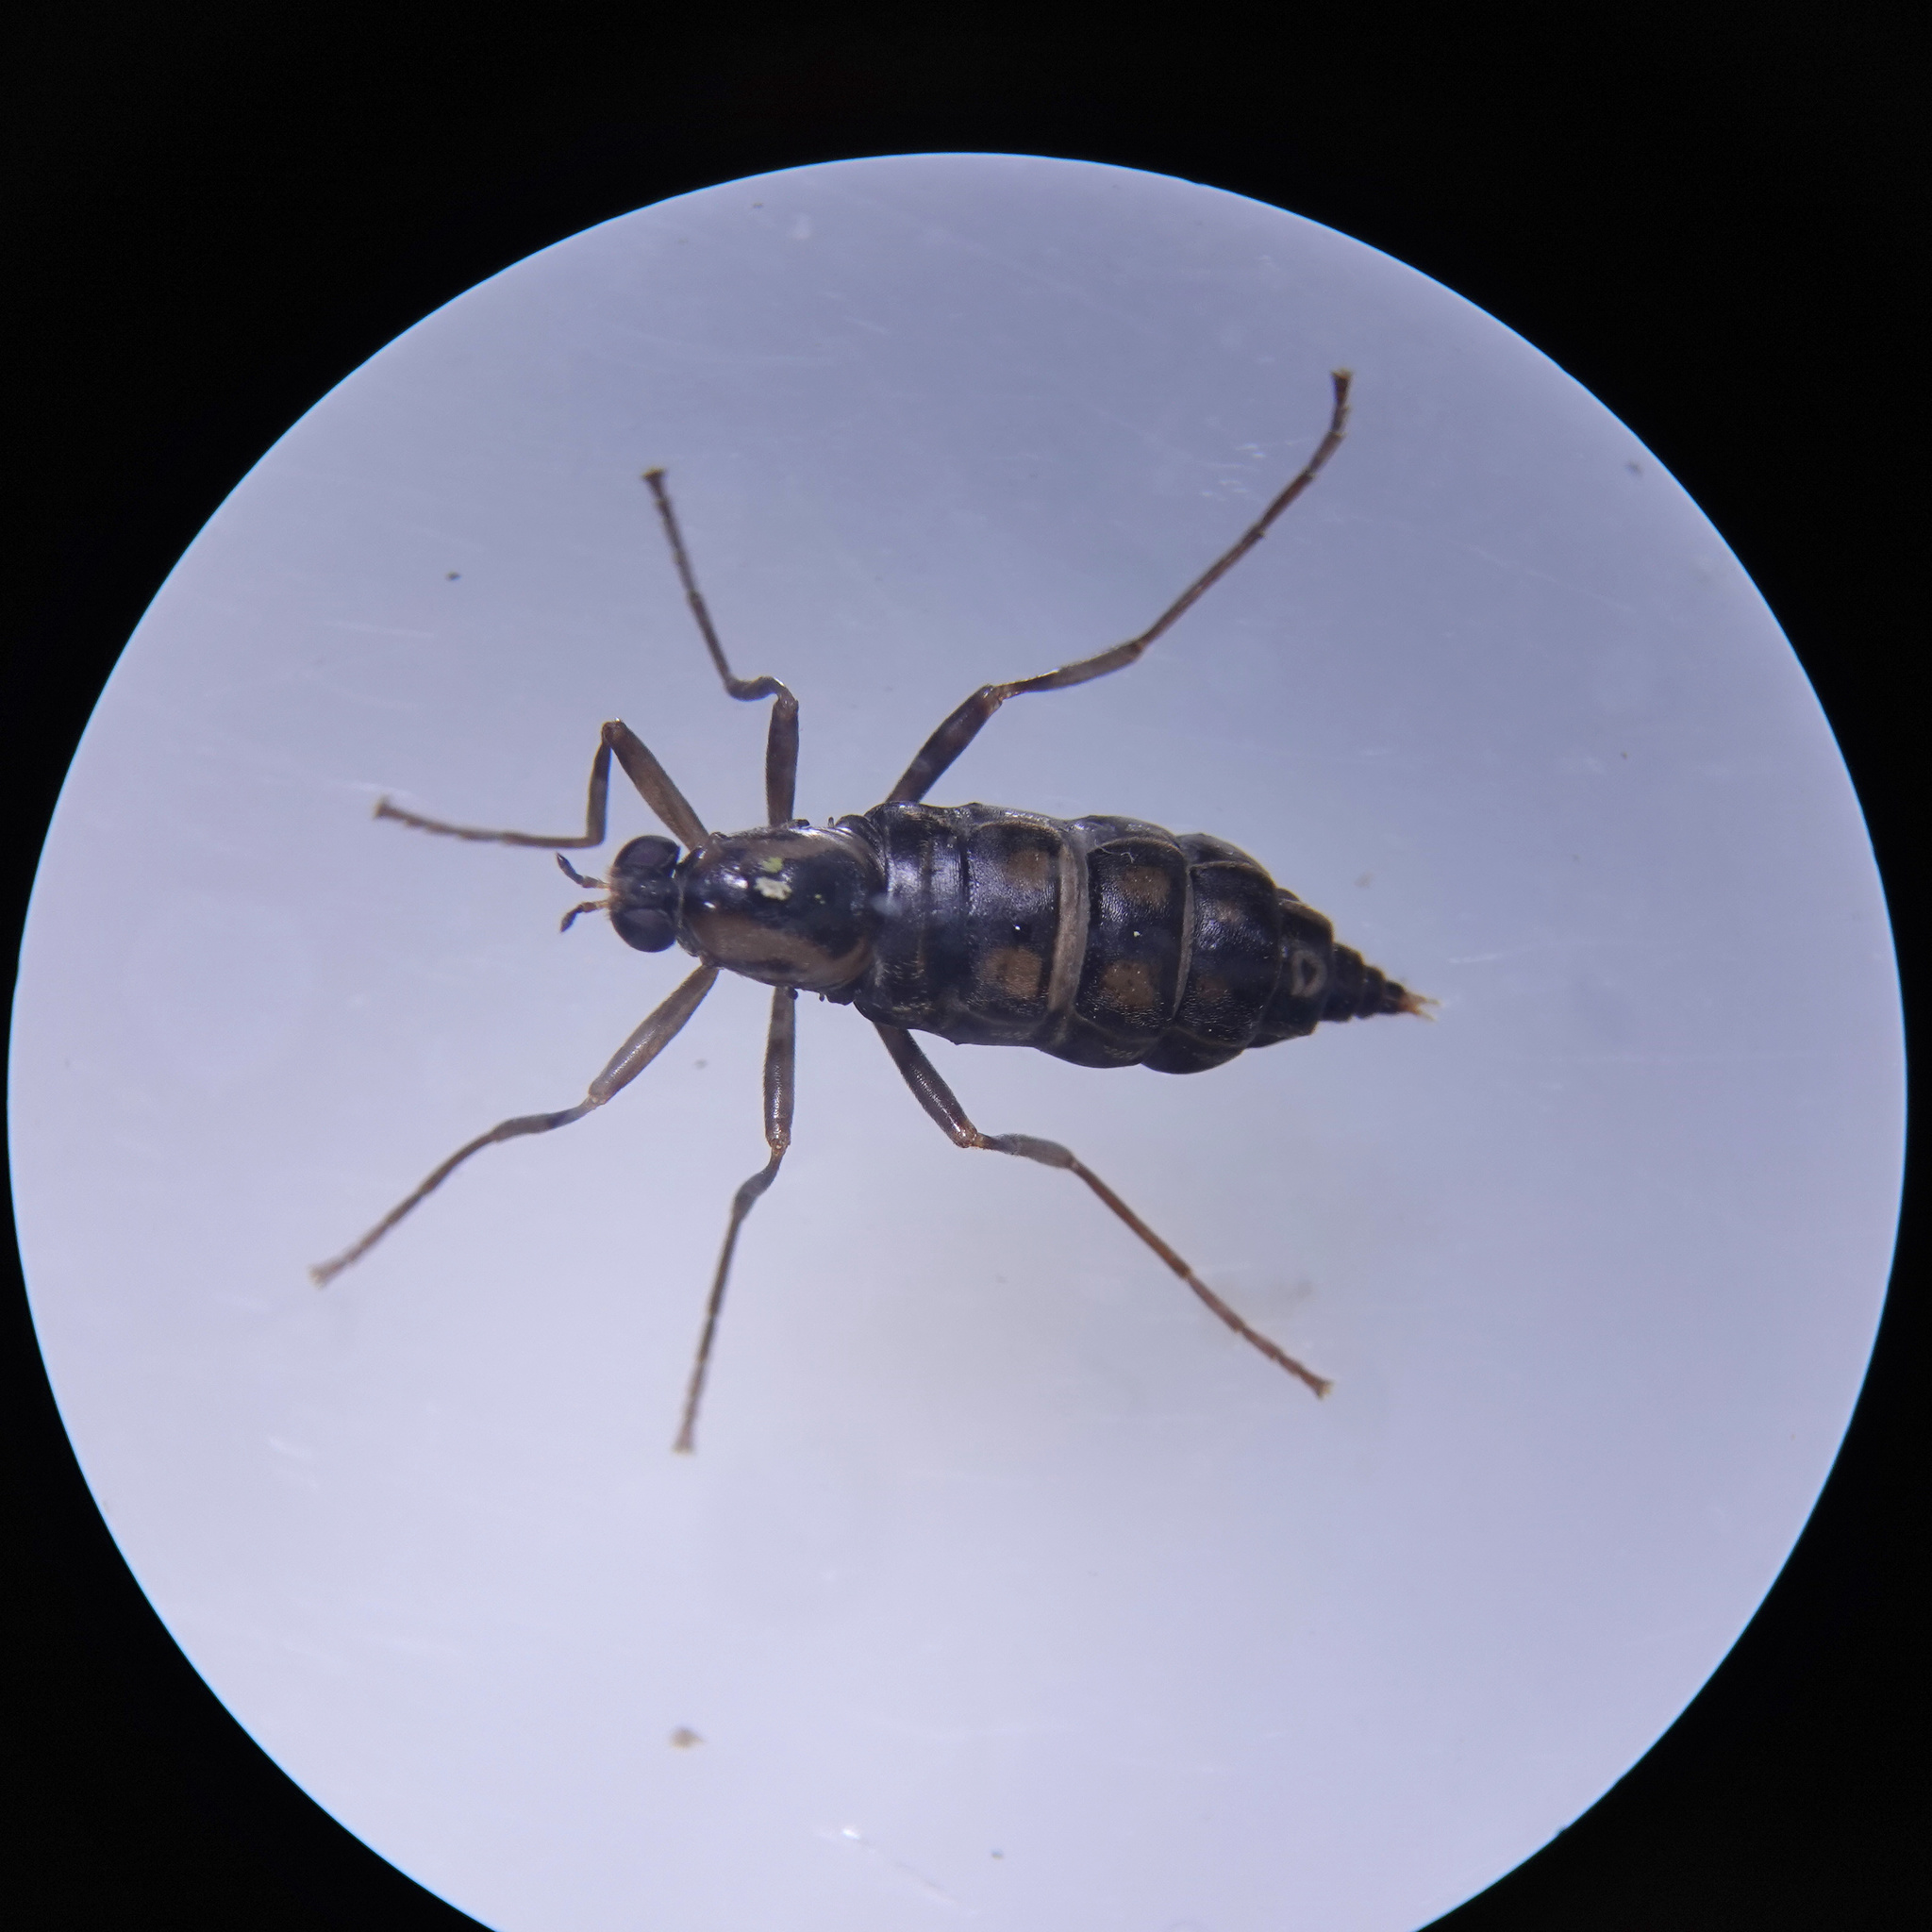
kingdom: Animalia
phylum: Arthropoda
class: Insecta
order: Diptera
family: Stratiomyidae
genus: Boreoides
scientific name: Boreoides tasmaniensis
